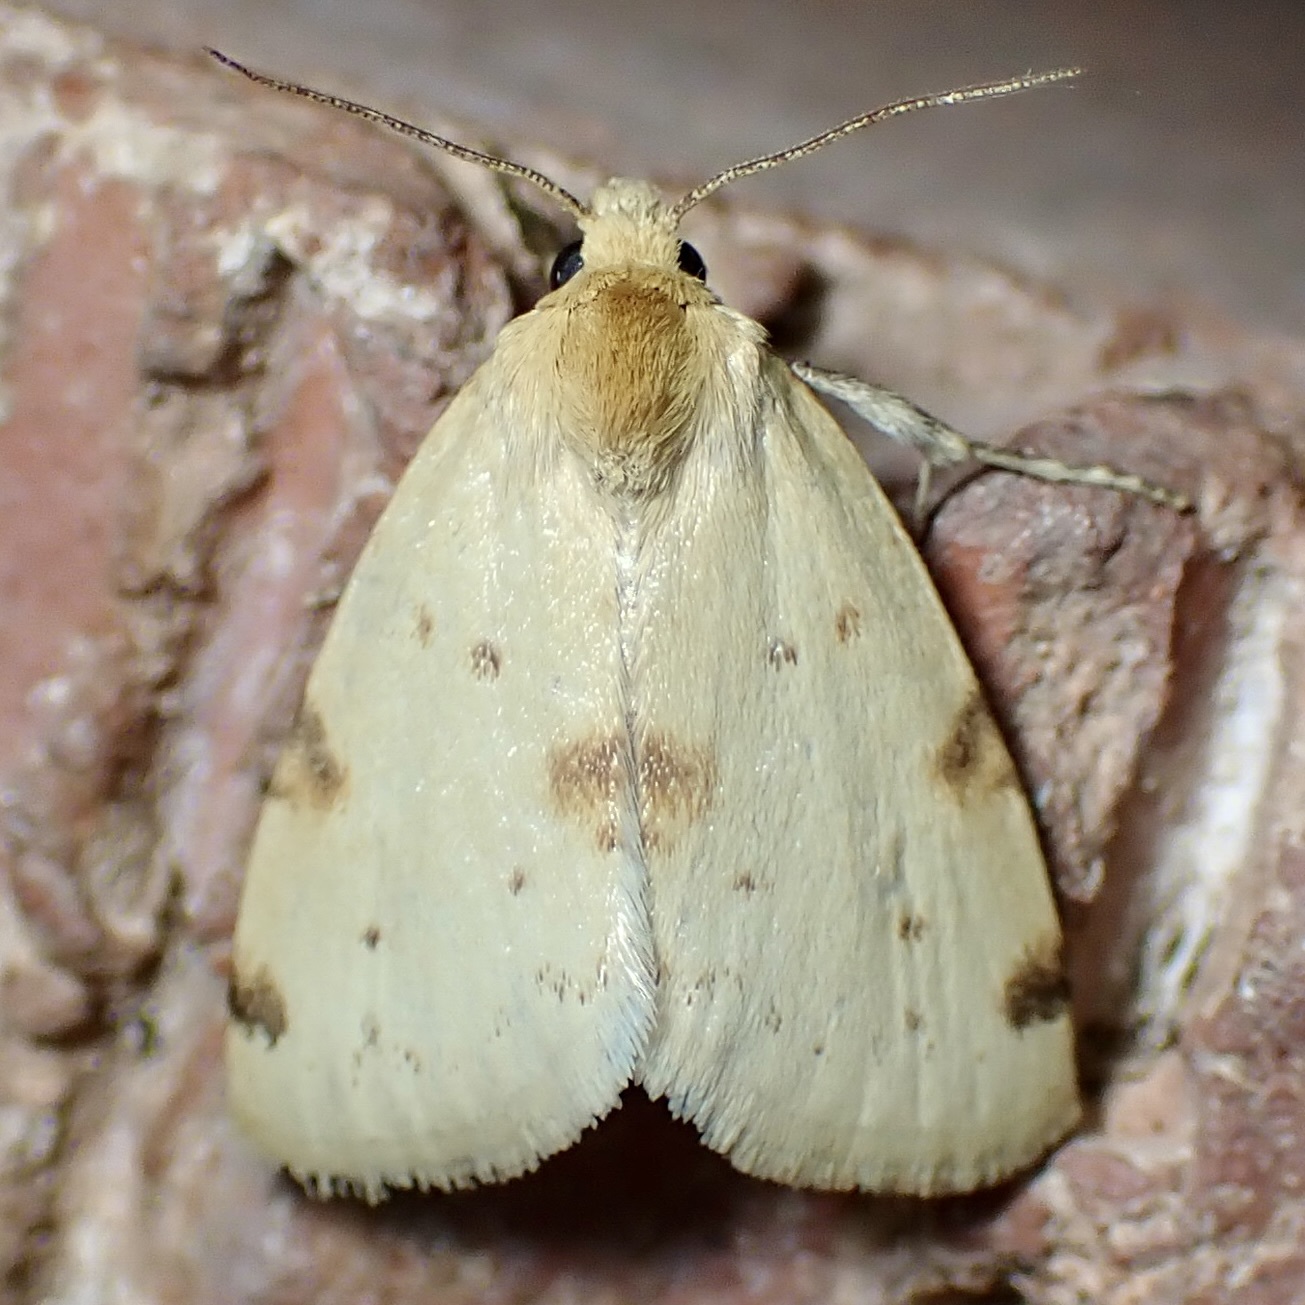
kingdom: Animalia
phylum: Arthropoda
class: Insecta
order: Lepidoptera
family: Noctuidae
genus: Azenia
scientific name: Azenia edentata
